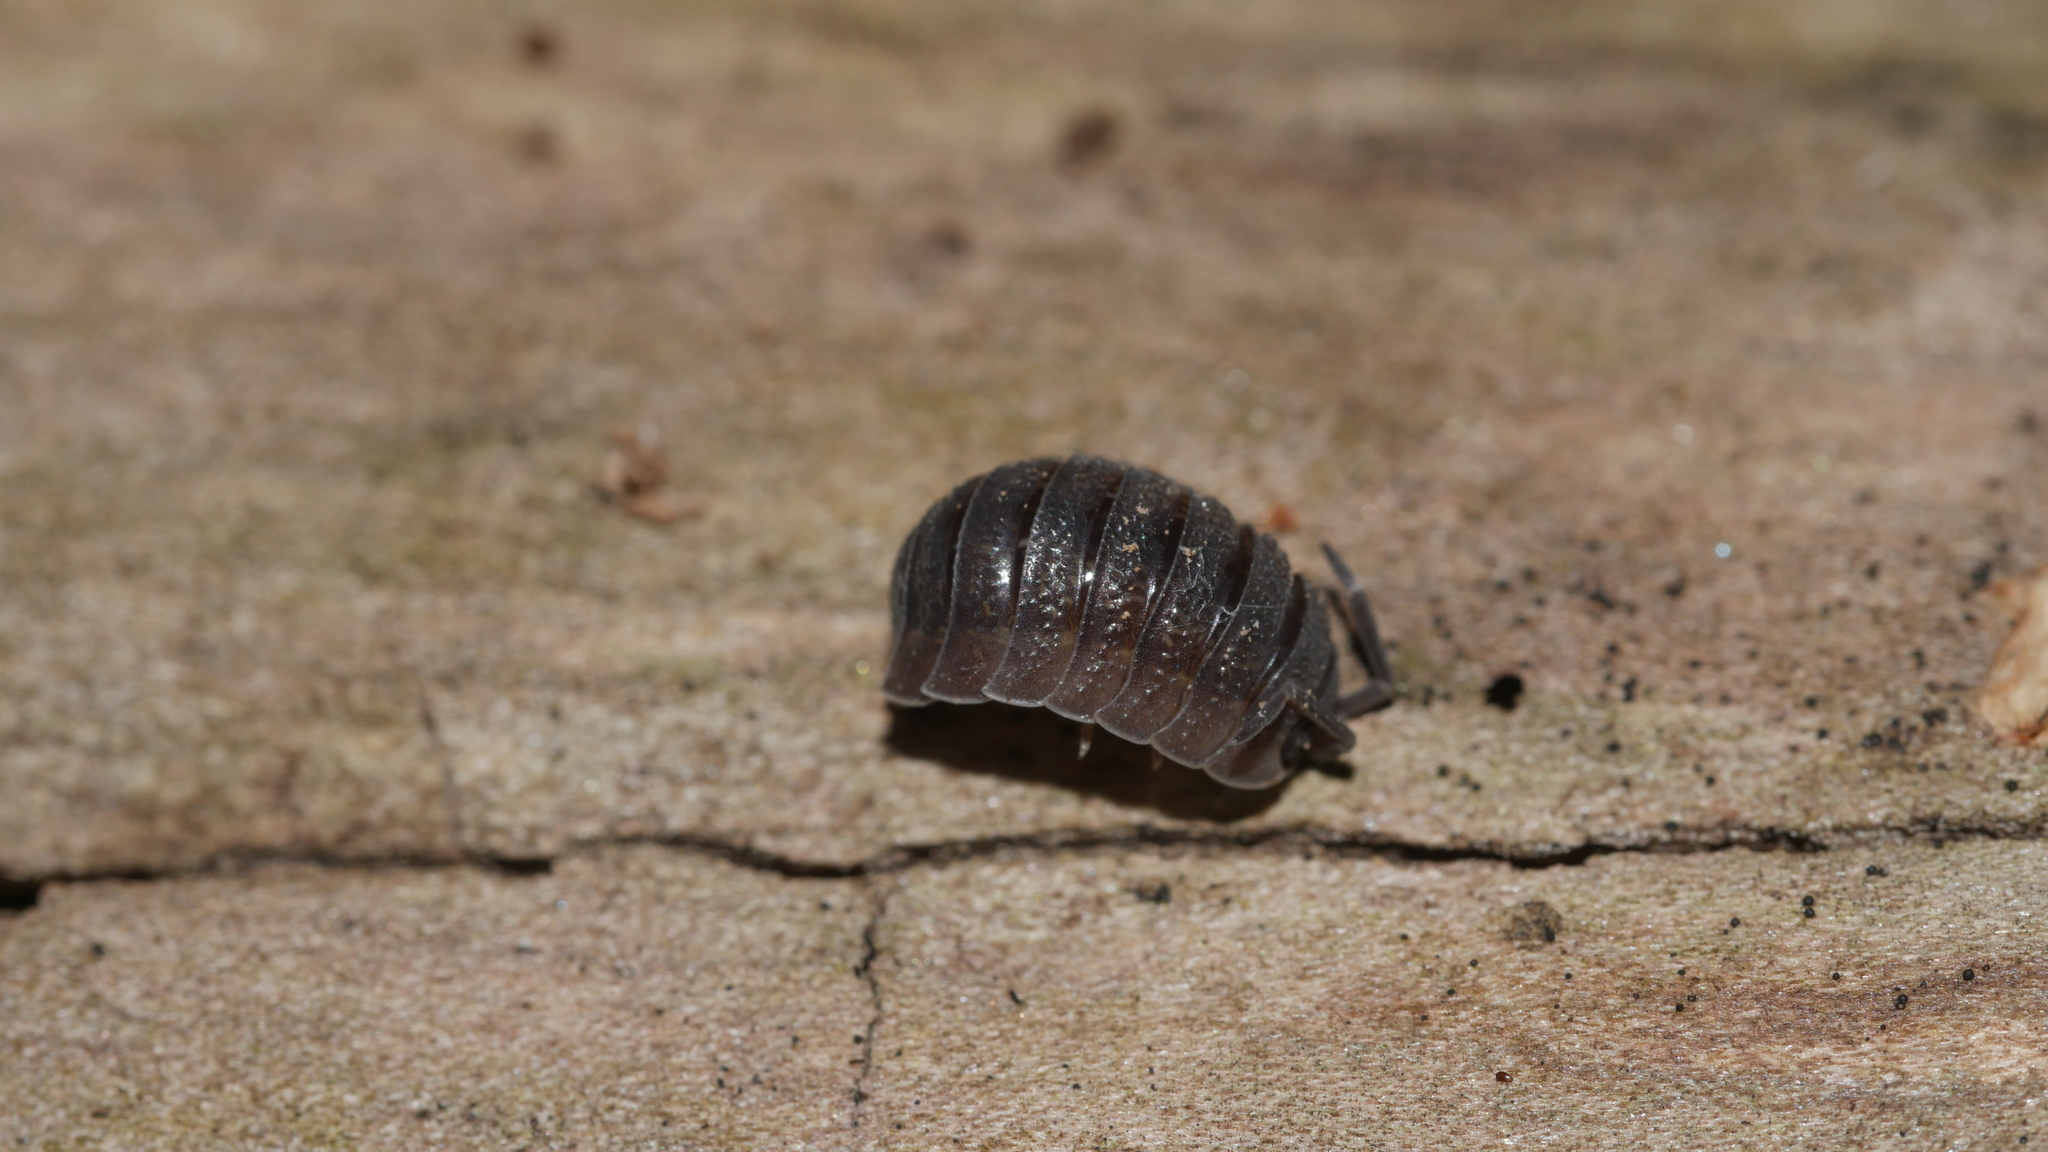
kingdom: Animalia
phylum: Arthropoda
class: Malacostraca
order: Isopoda
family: Porcellionidae
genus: Porcellio
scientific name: Porcellio scaber
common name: Common rough woodlouse
